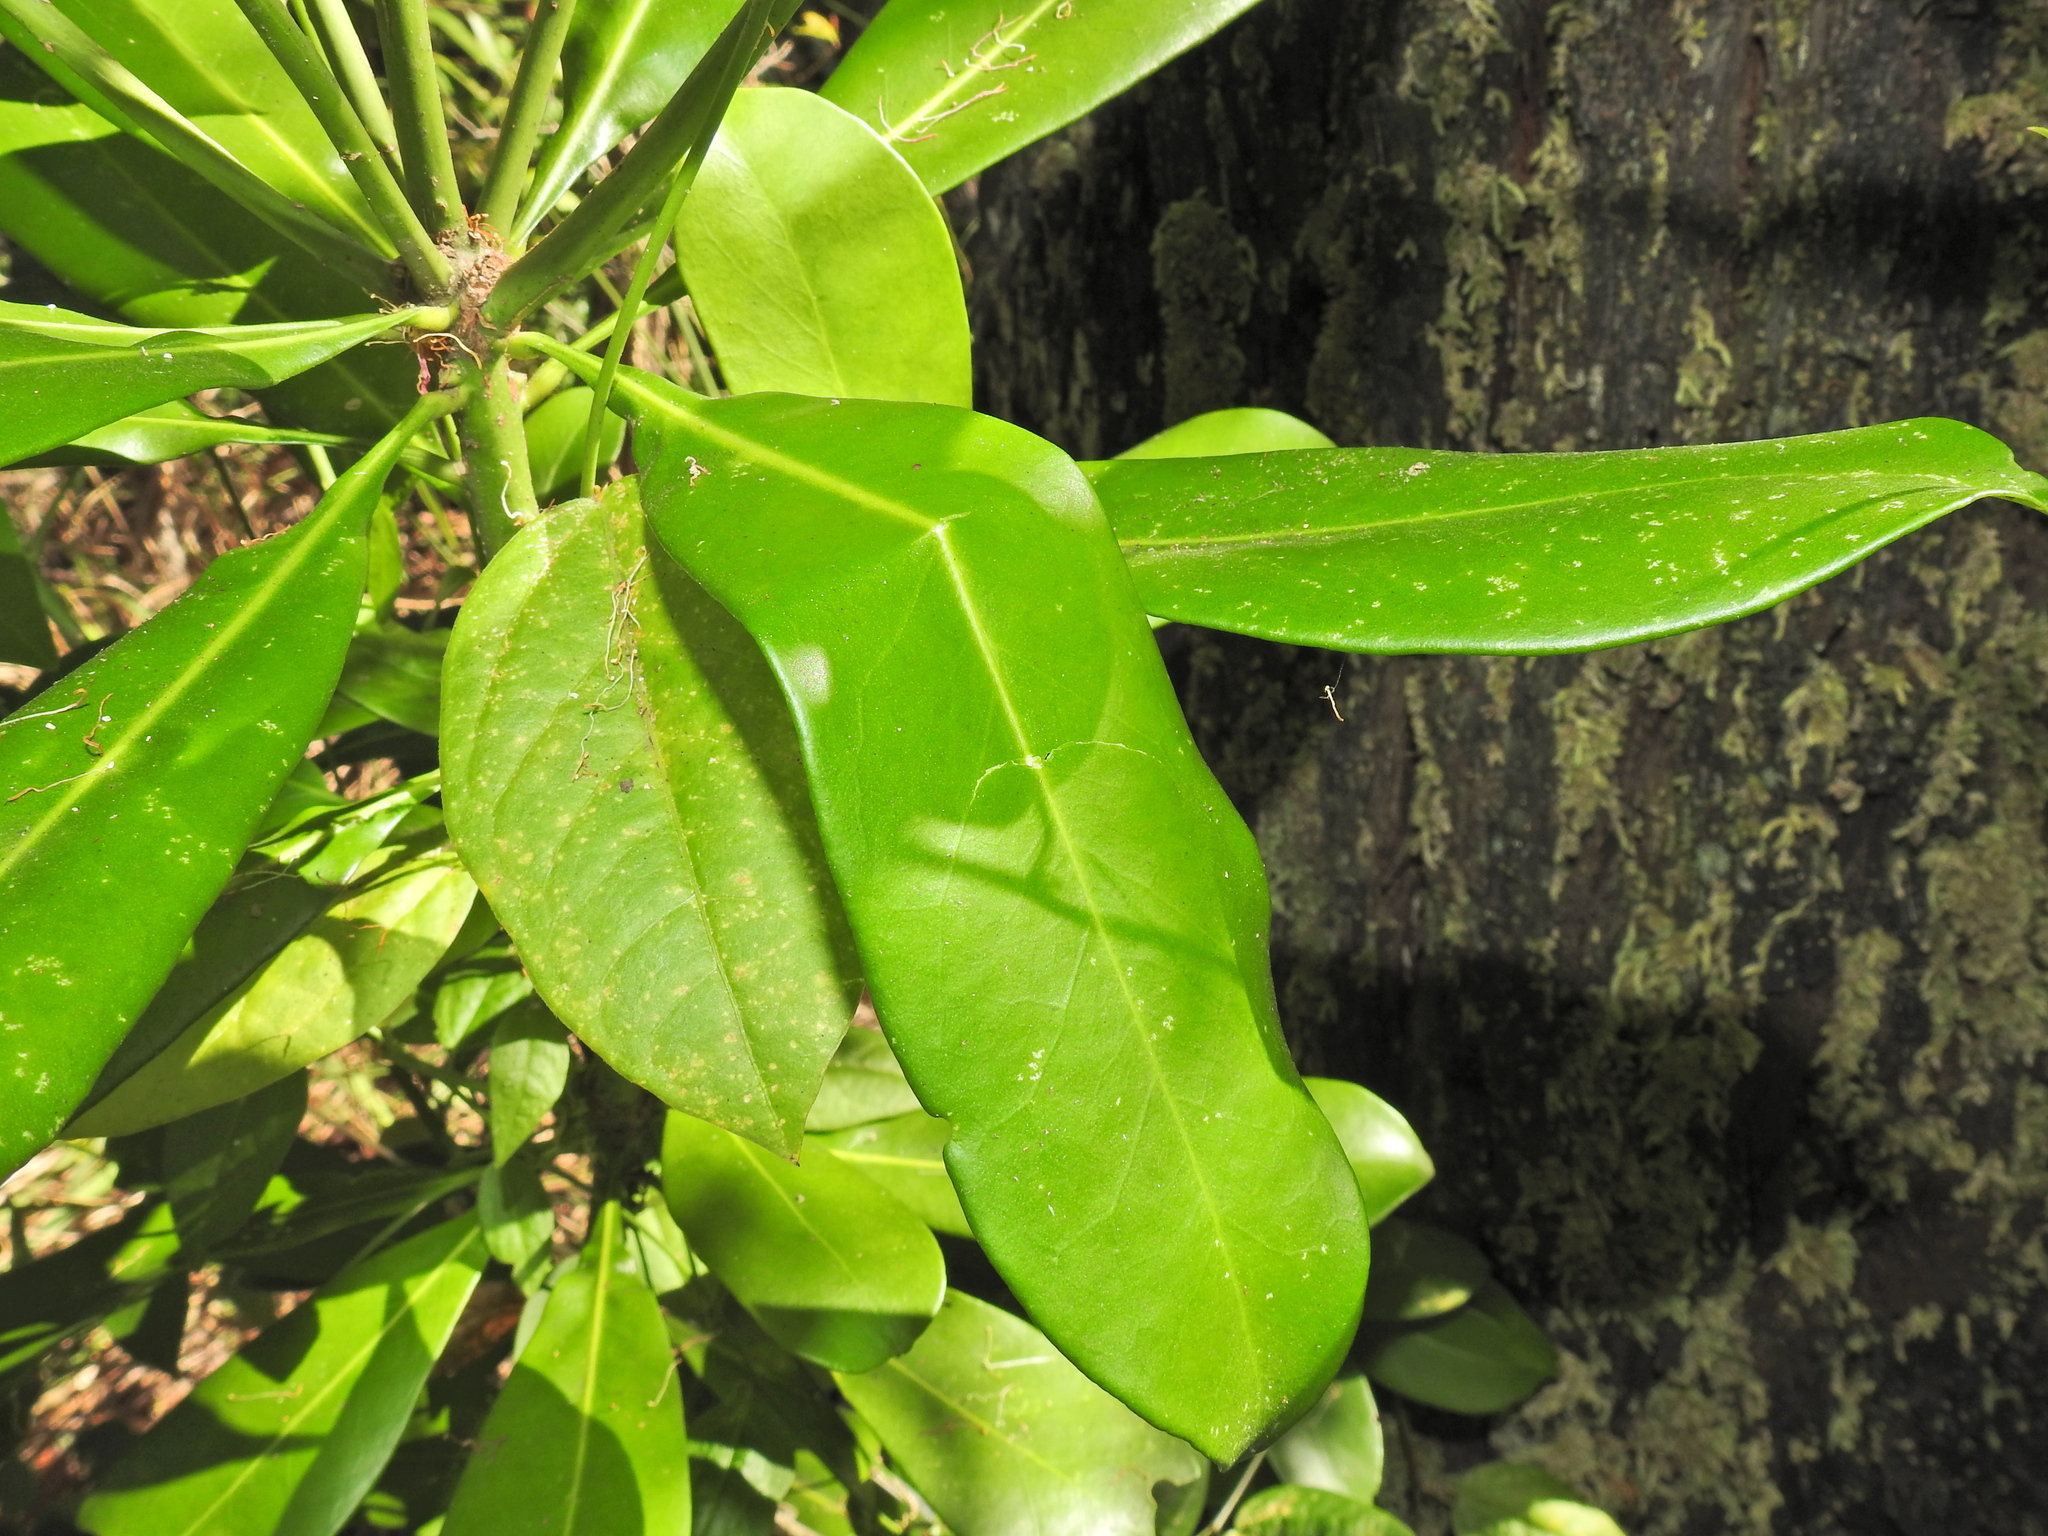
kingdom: Plantae
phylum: Tracheophyta
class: Magnoliopsida
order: Sapindales
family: Rutaceae
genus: Halfordia
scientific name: Halfordia kendack
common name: Southern ghittoe
